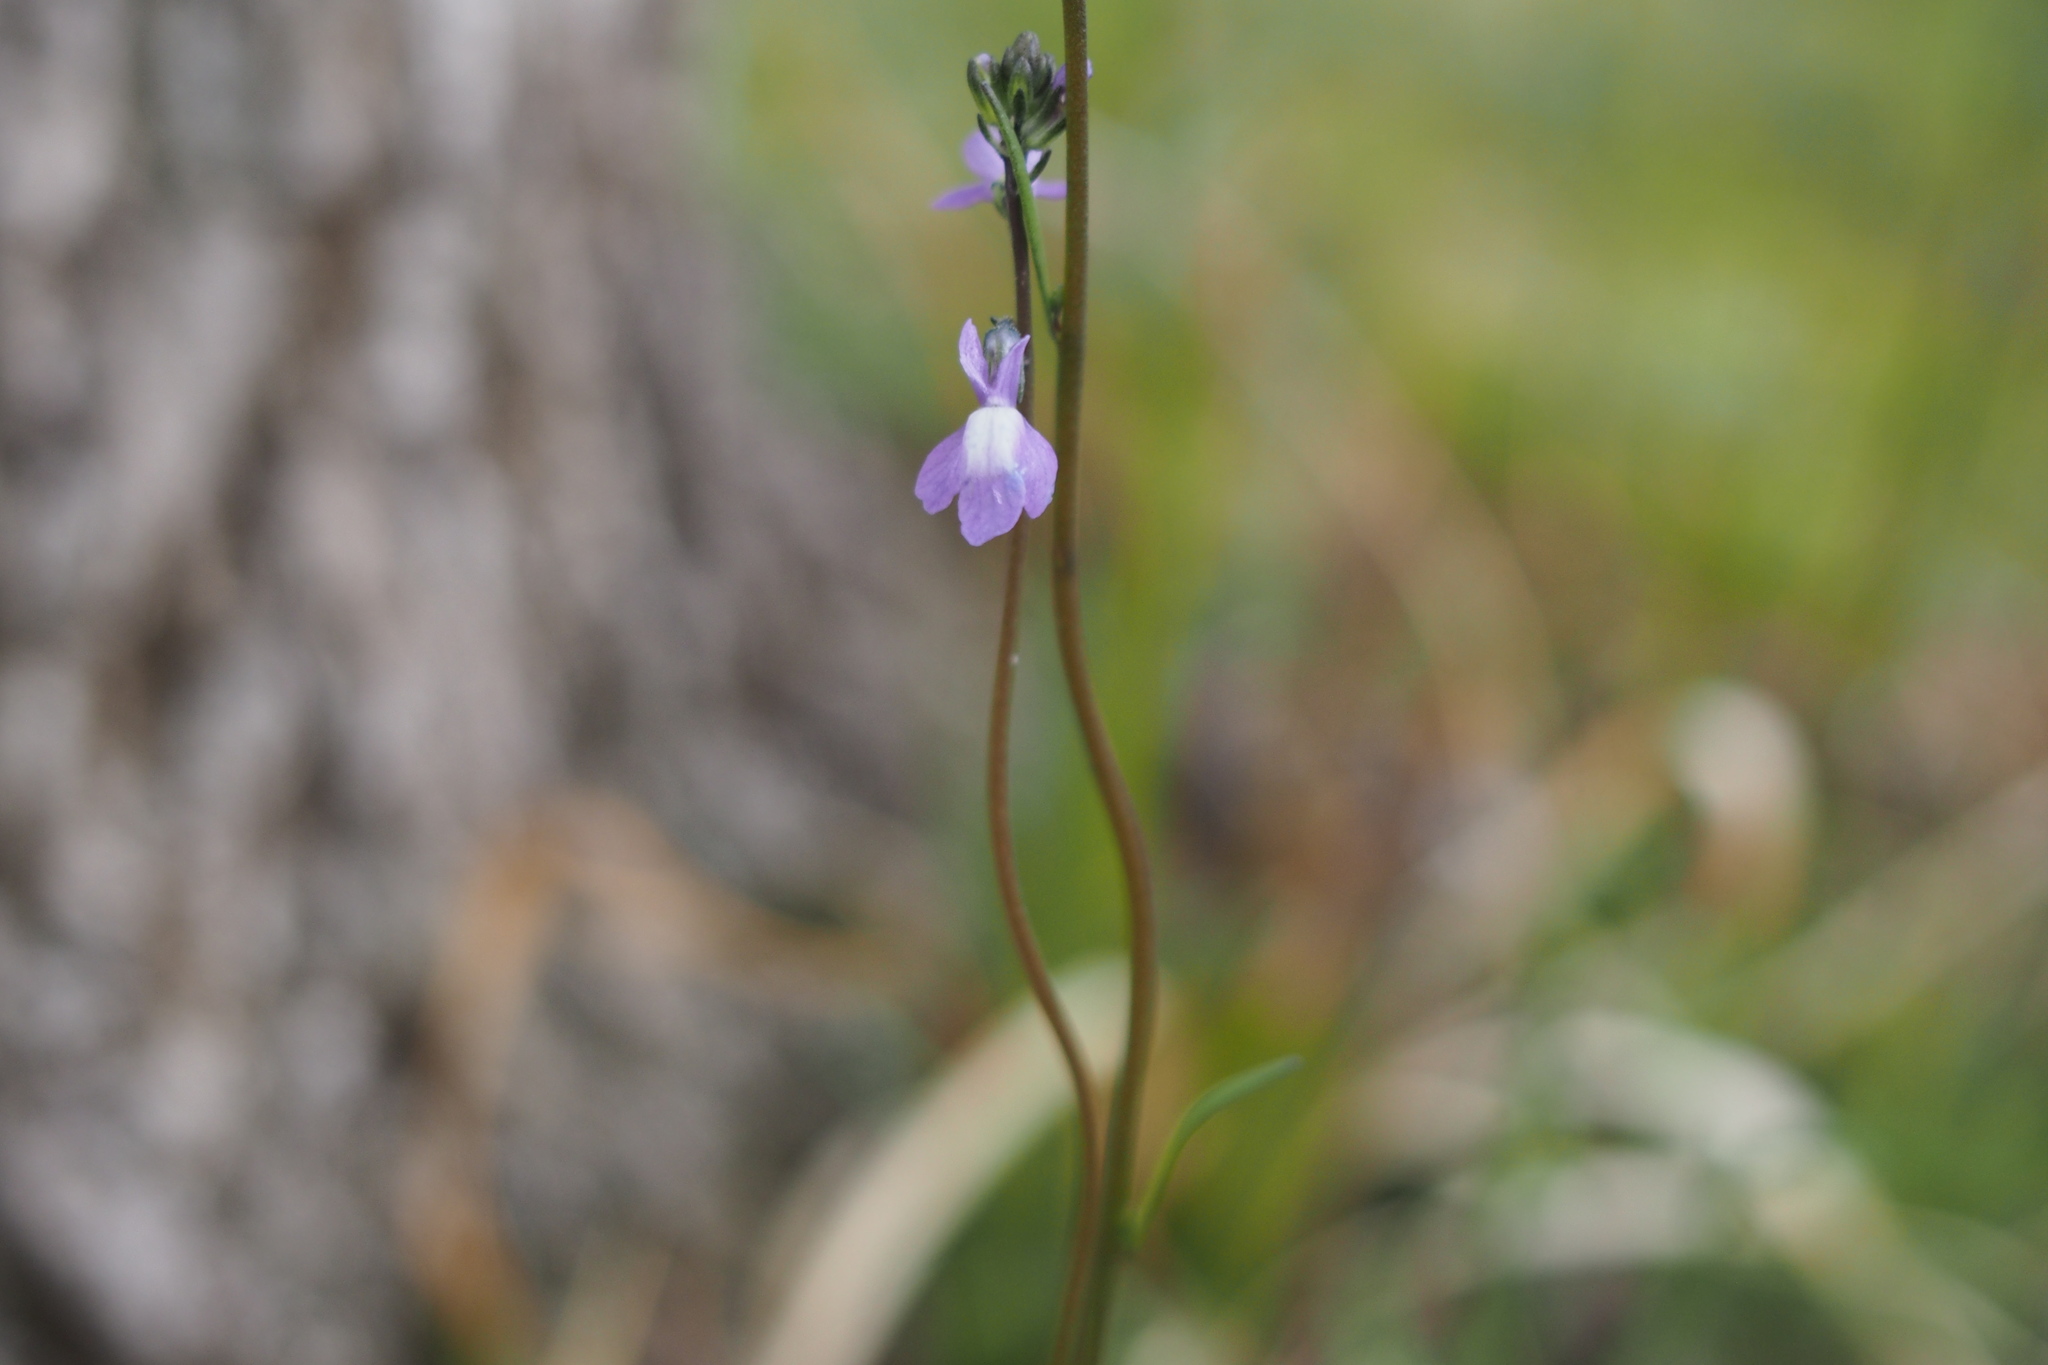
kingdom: Plantae
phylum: Tracheophyta
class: Magnoliopsida
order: Lamiales
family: Plantaginaceae
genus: Nuttallanthus
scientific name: Nuttallanthus canadensis
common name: Blue toadflax
